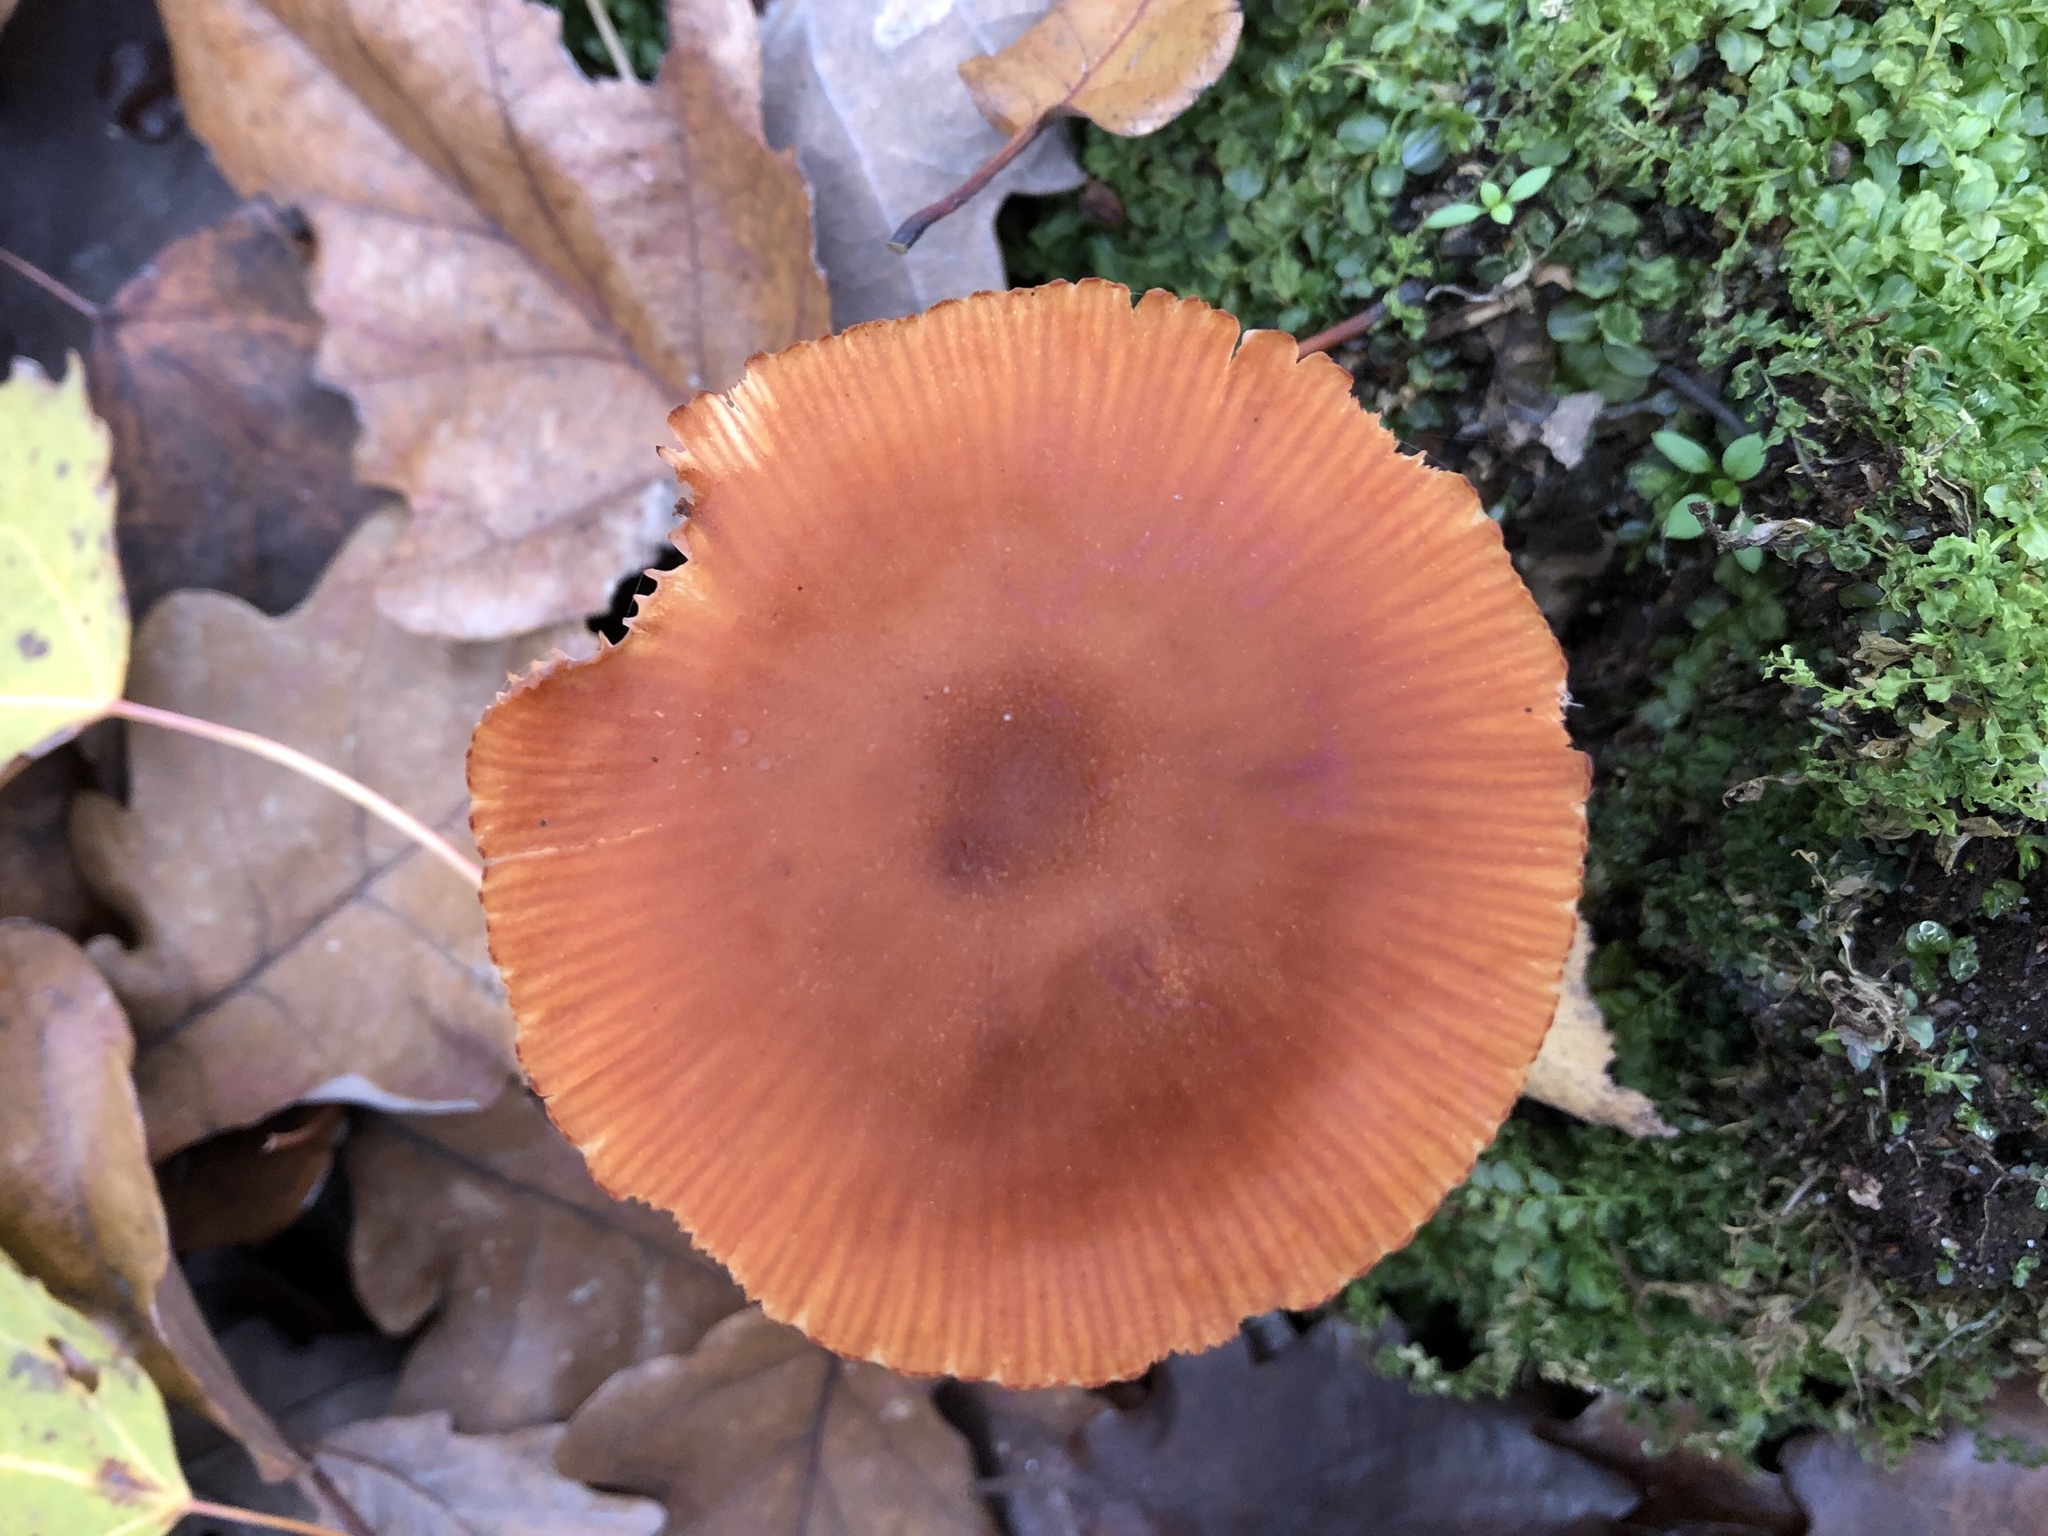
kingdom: Fungi
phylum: Basidiomycota
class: Agaricomycetes
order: Agaricales
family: Hydnangiaceae
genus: Laccaria
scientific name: Laccaria laccata
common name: Deceiver
